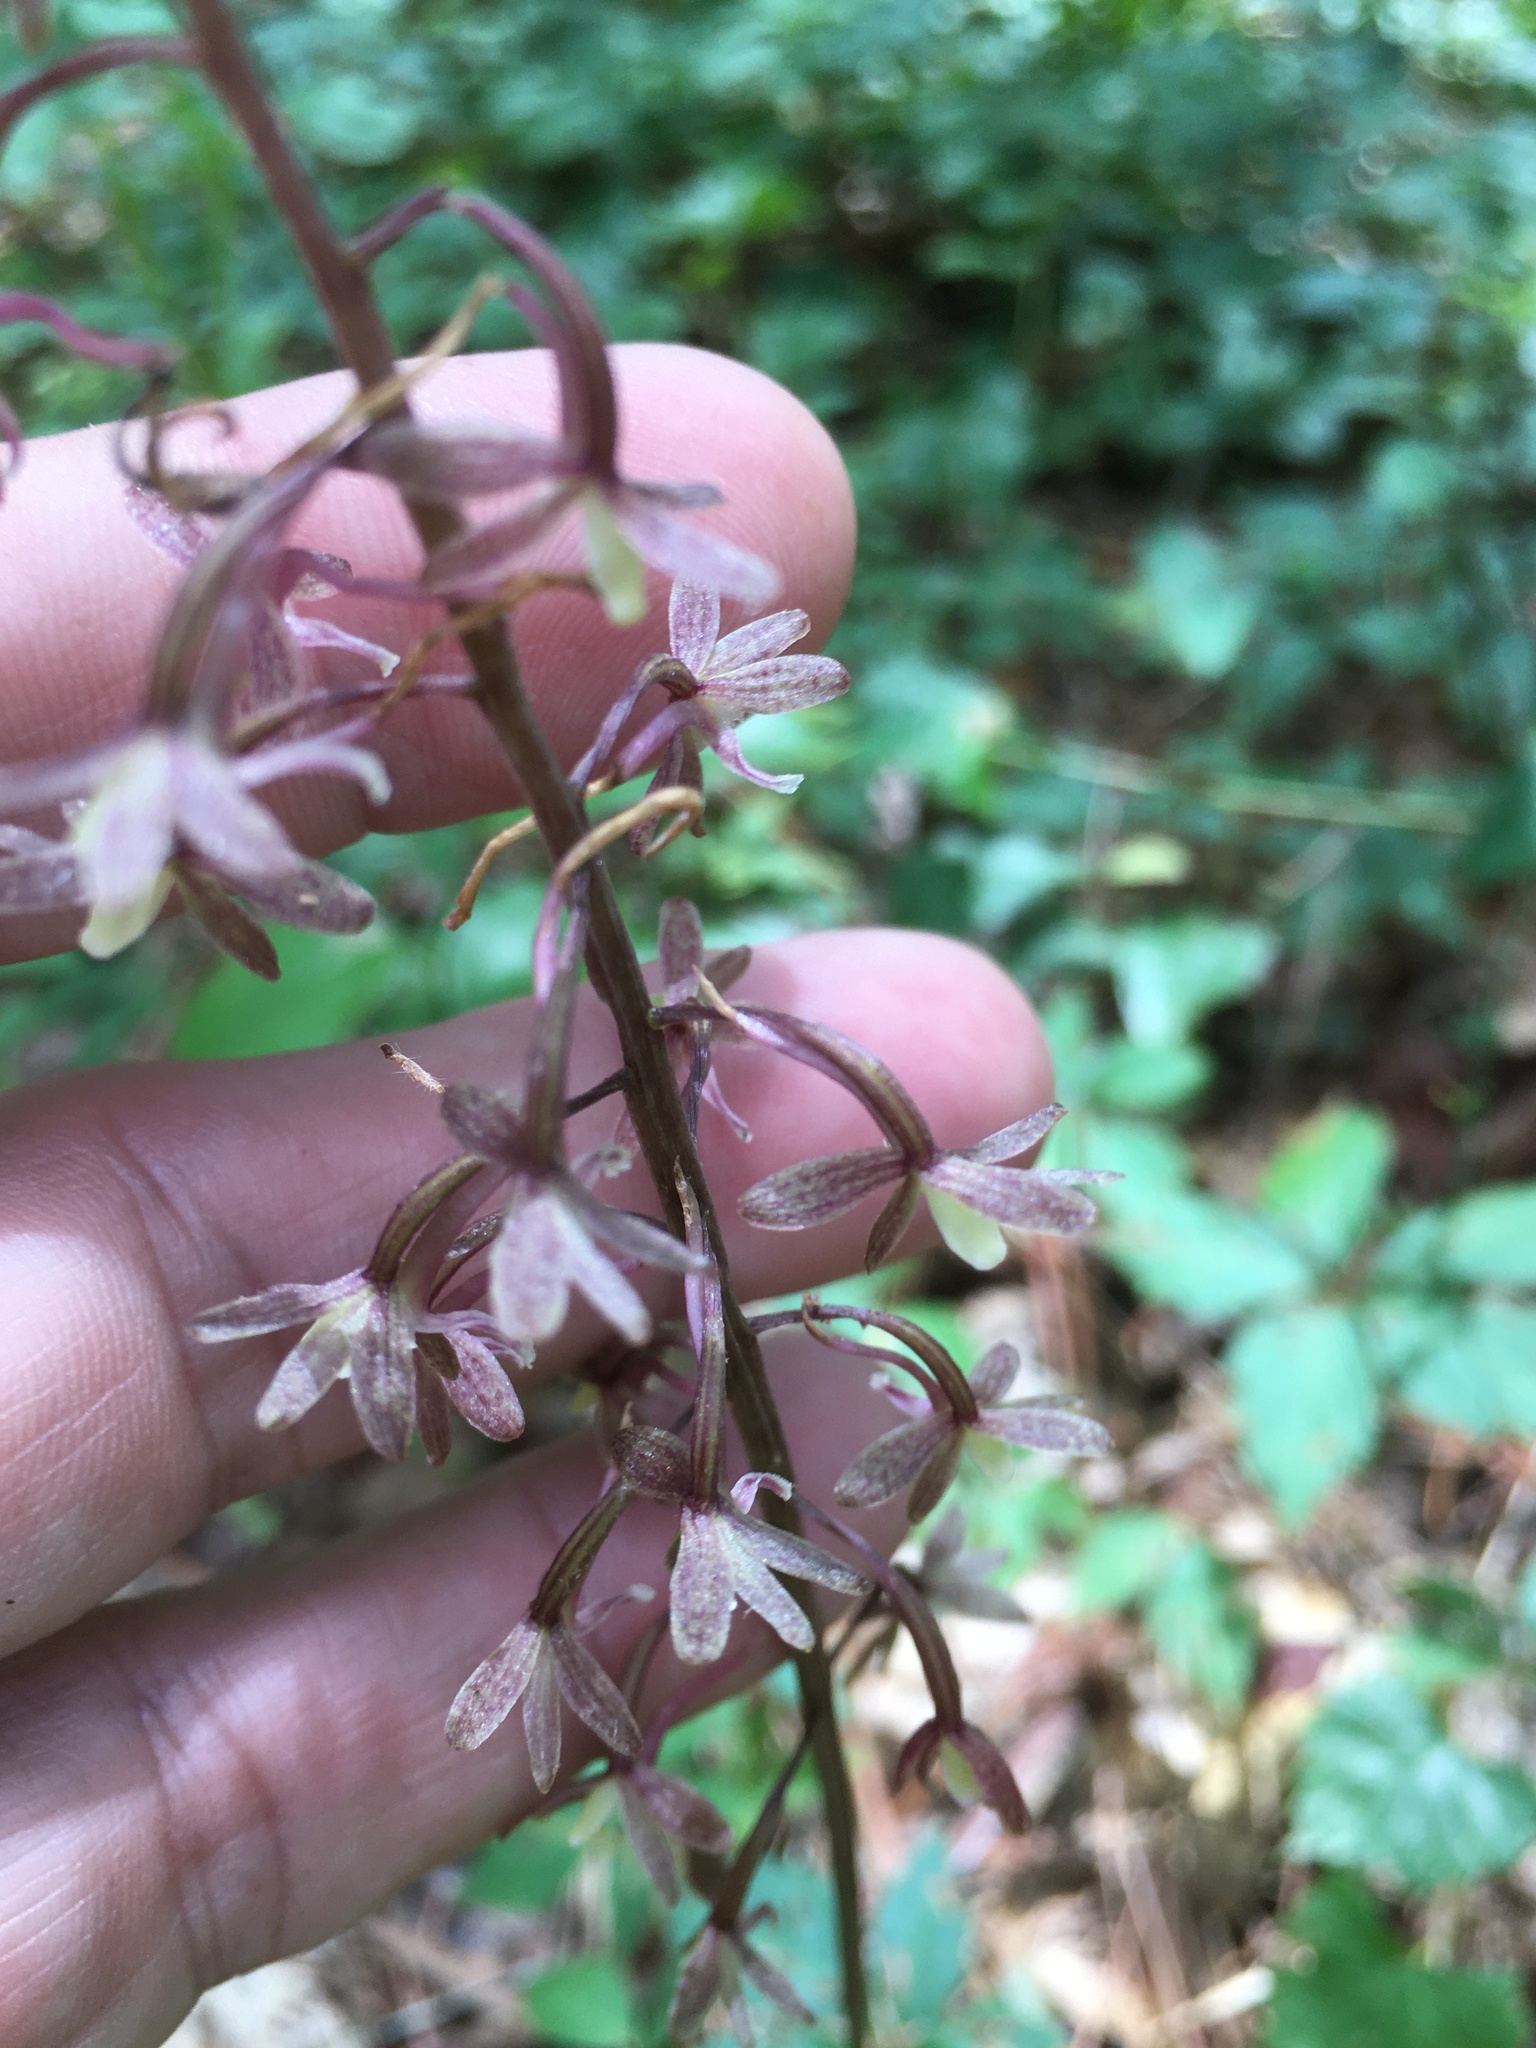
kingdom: Plantae
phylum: Tracheophyta
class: Liliopsida
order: Asparagales
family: Orchidaceae
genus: Tipularia
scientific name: Tipularia discolor
